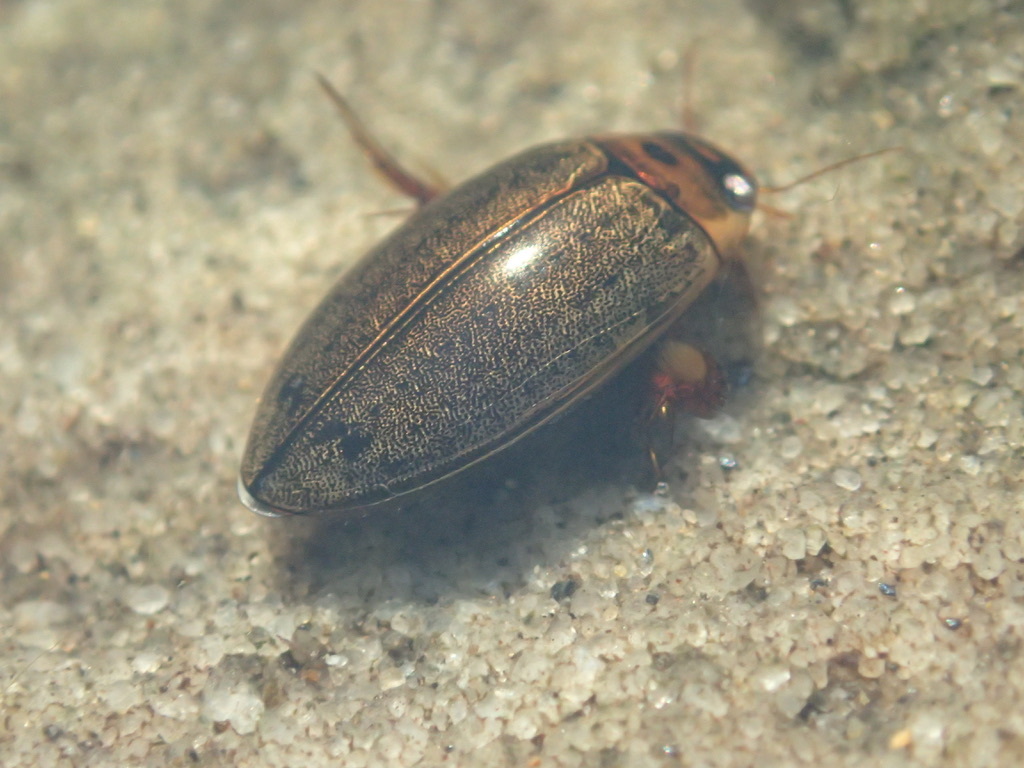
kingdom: Animalia
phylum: Arthropoda
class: Insecta
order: Coleoptera
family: Dytiscidae
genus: Rhantus
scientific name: Rhantus suturalis
